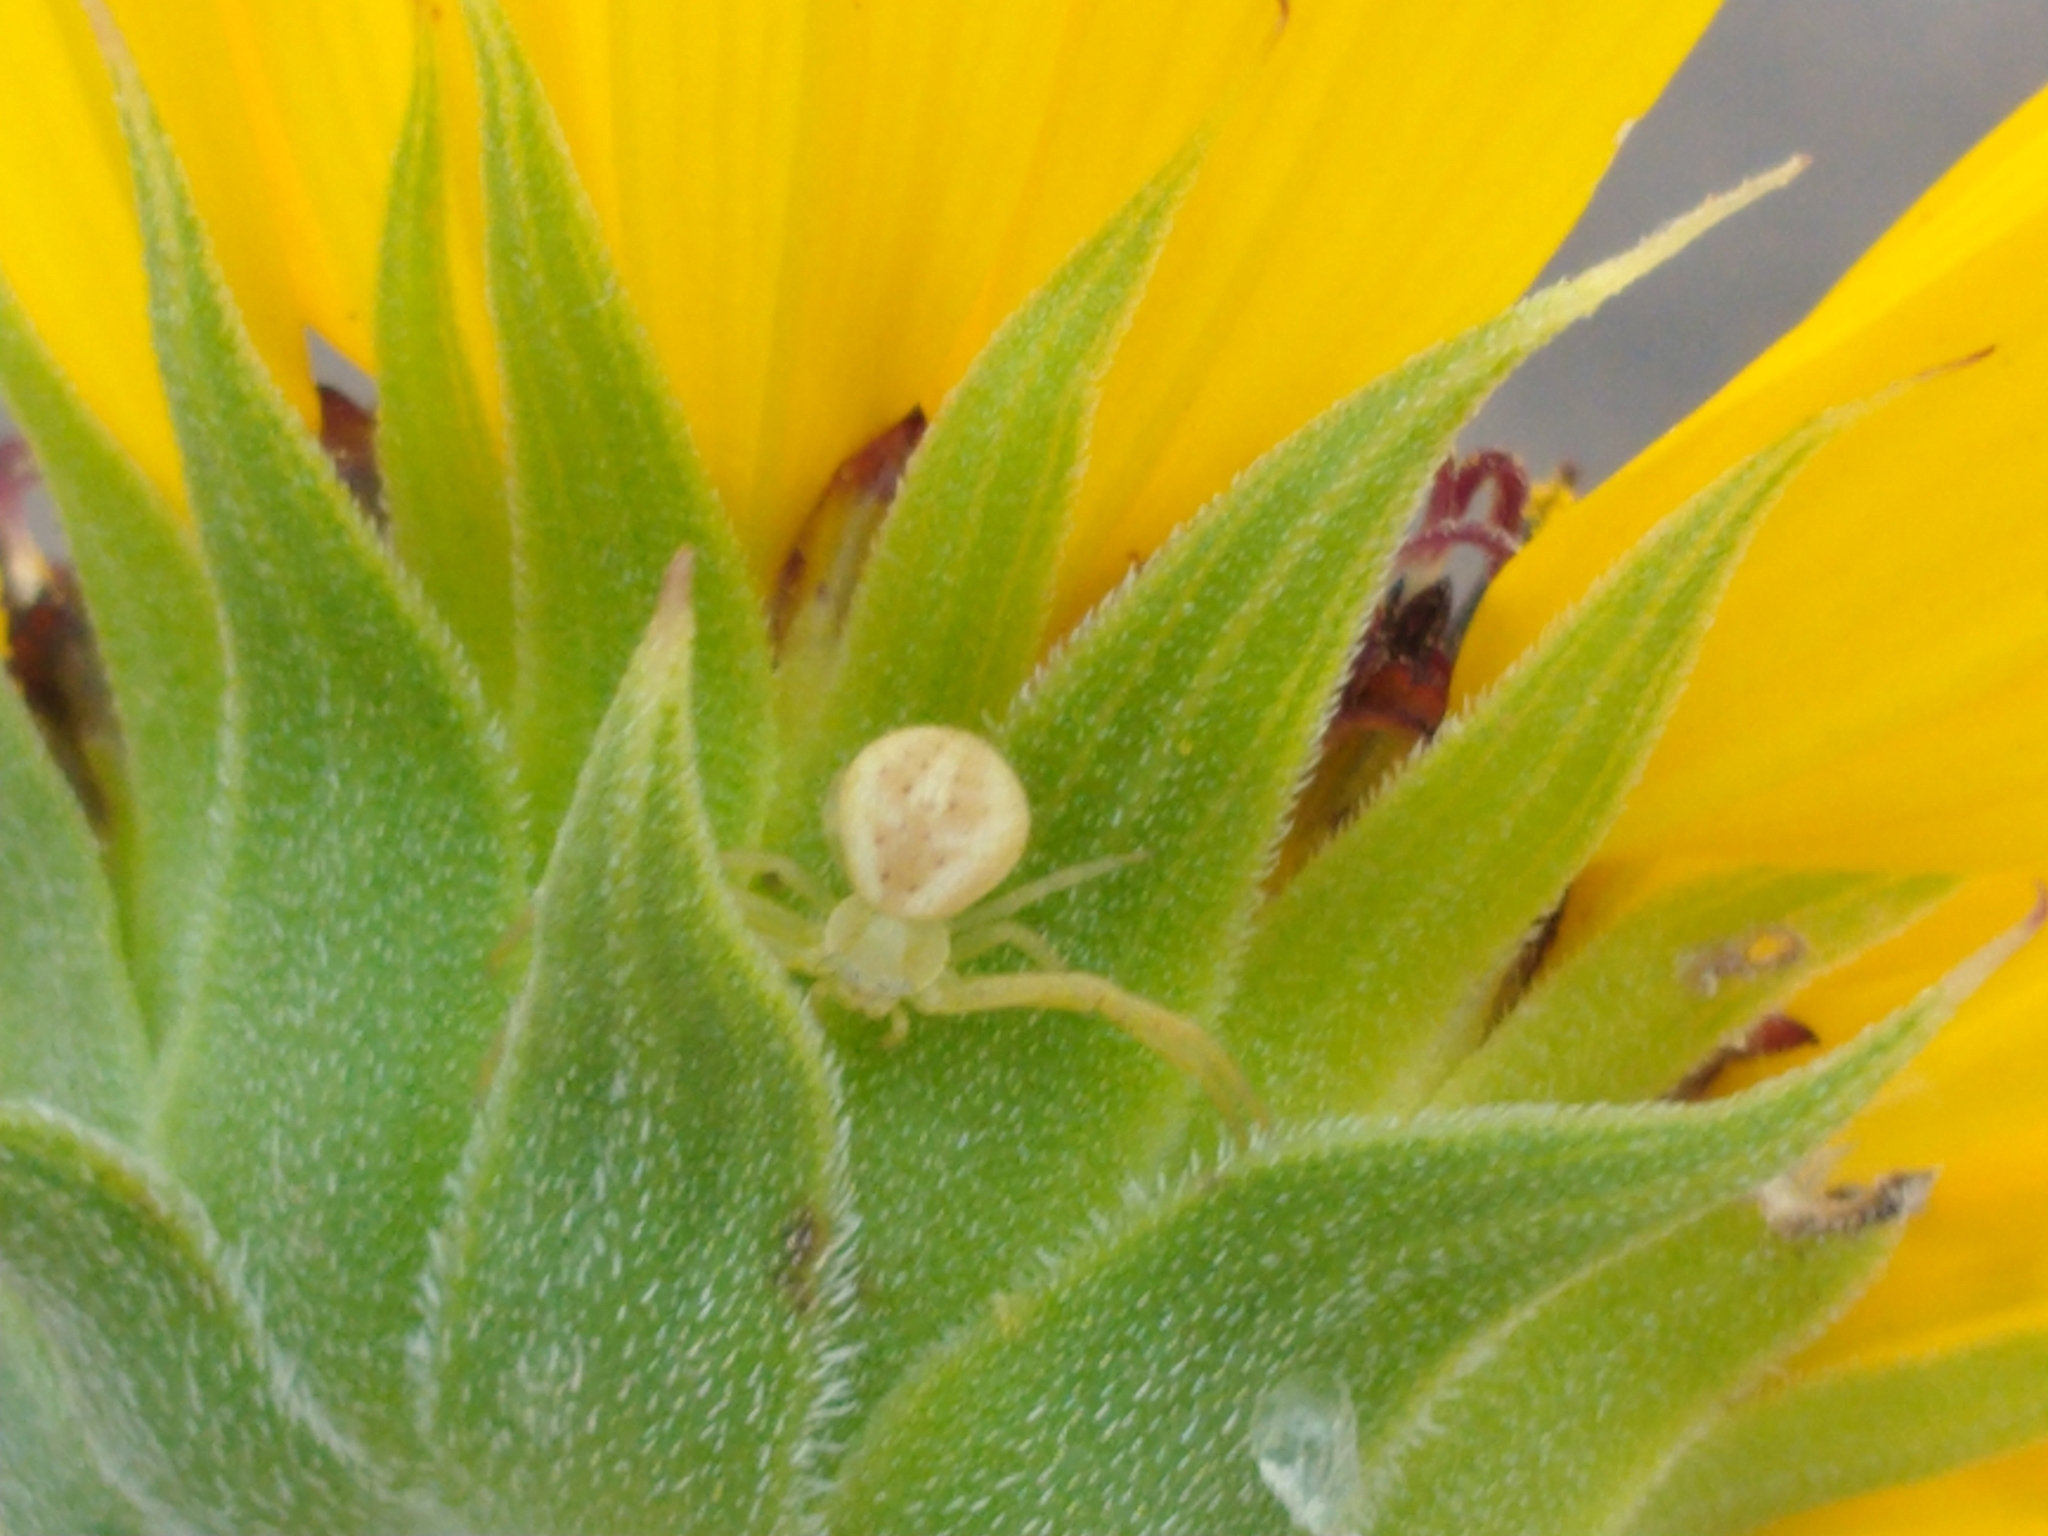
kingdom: Animalia
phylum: Arthropoda
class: Arachnida
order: Araneae
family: Thomisidae
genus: Misumenops
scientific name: Misumenops
